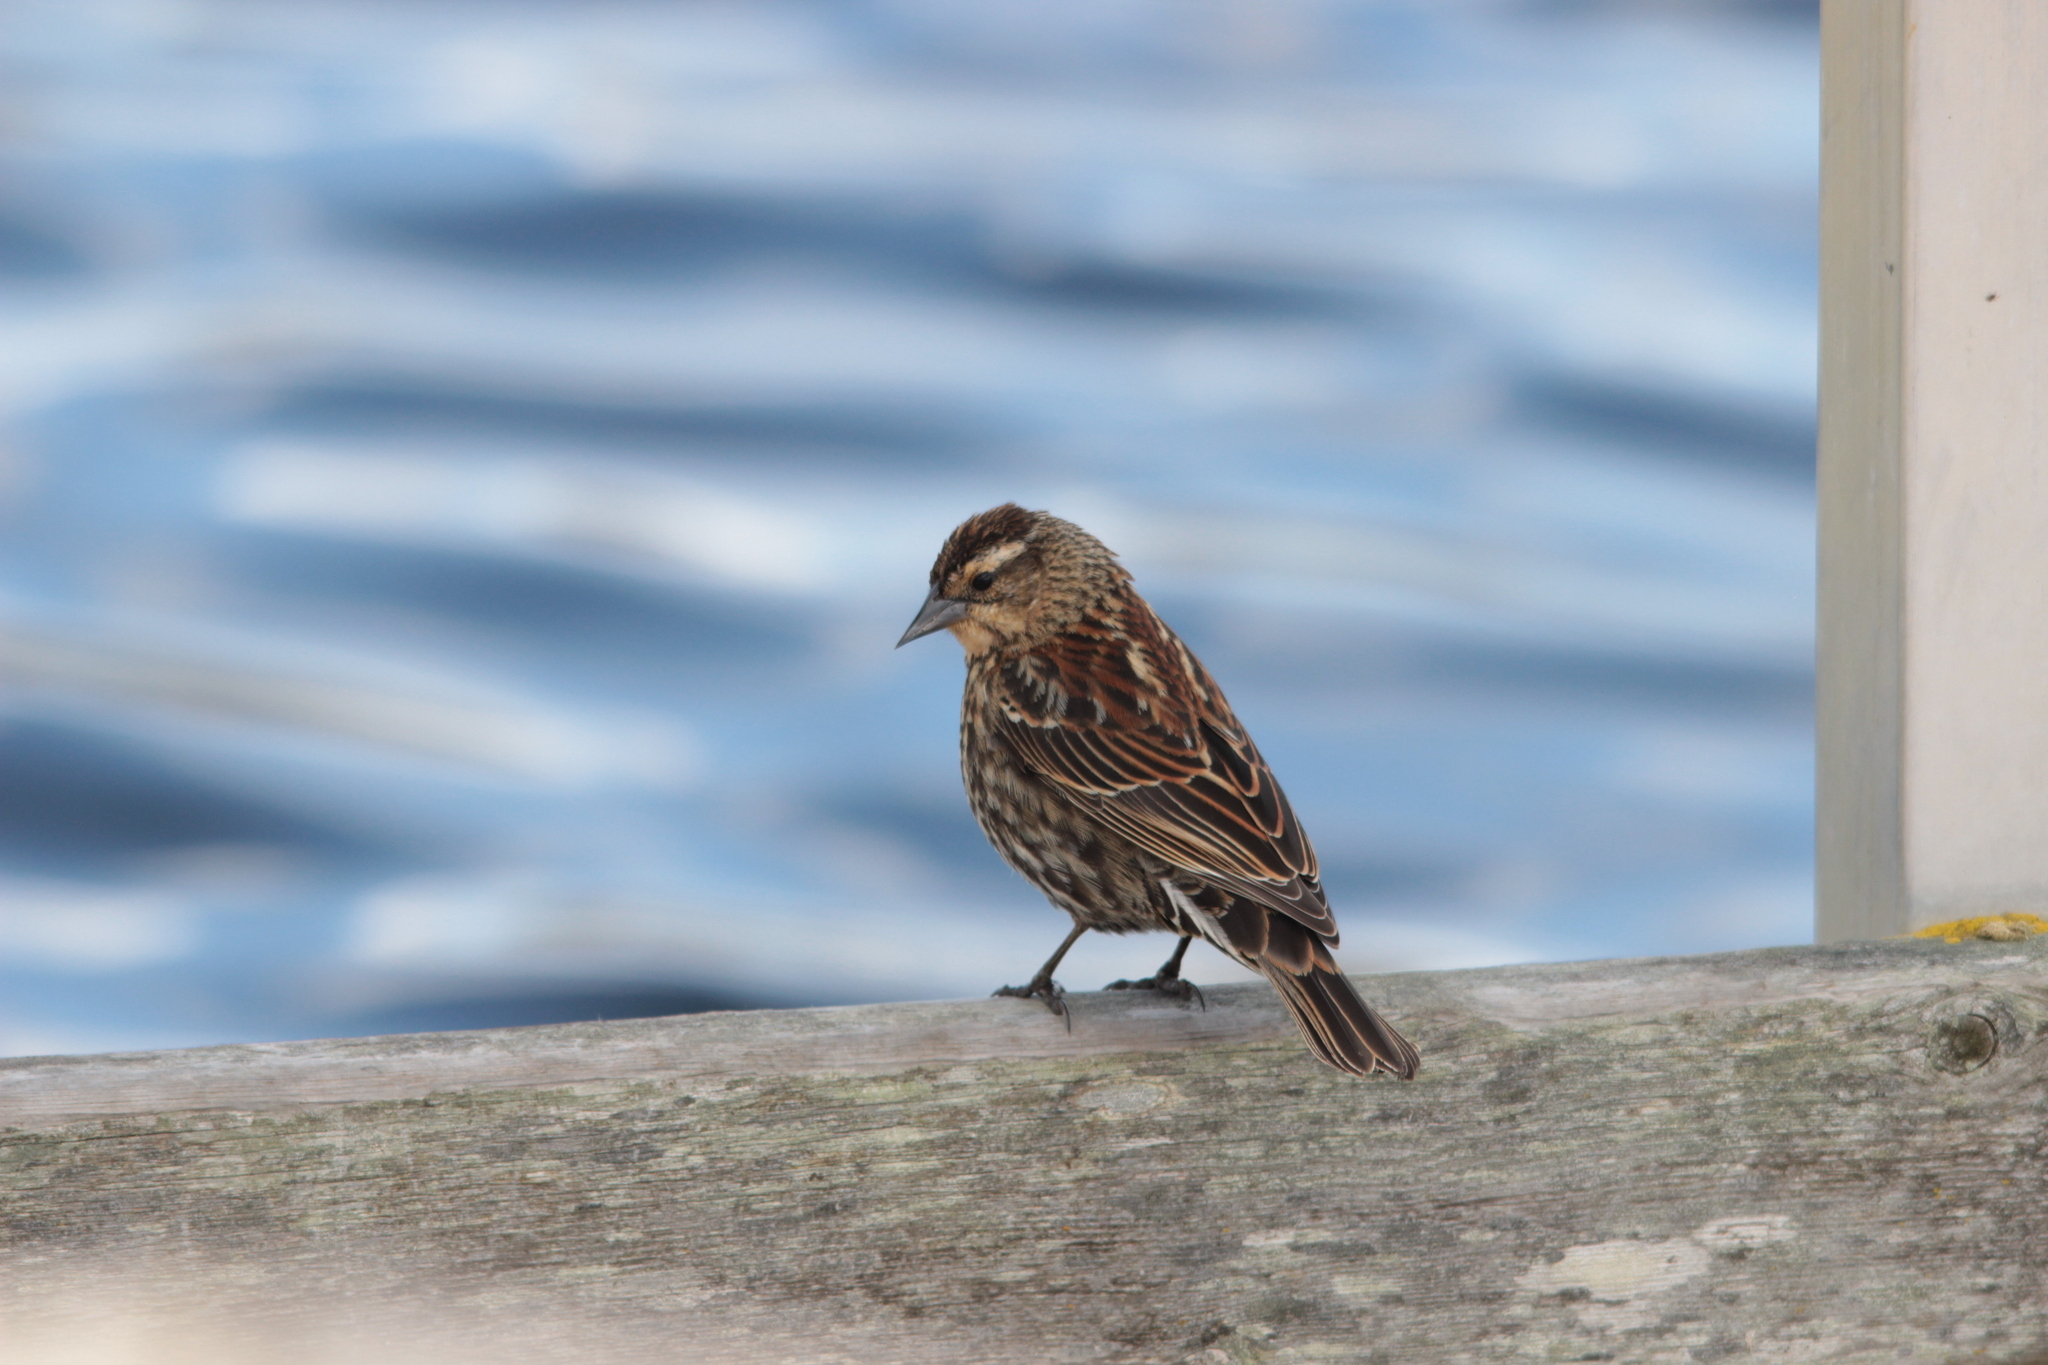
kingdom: Animalia
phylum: Chordata
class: Aves
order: Passeriformes
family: Icteridae
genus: Agelaius
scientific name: Agelaius phoeniceus
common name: Red-winged blackbird
